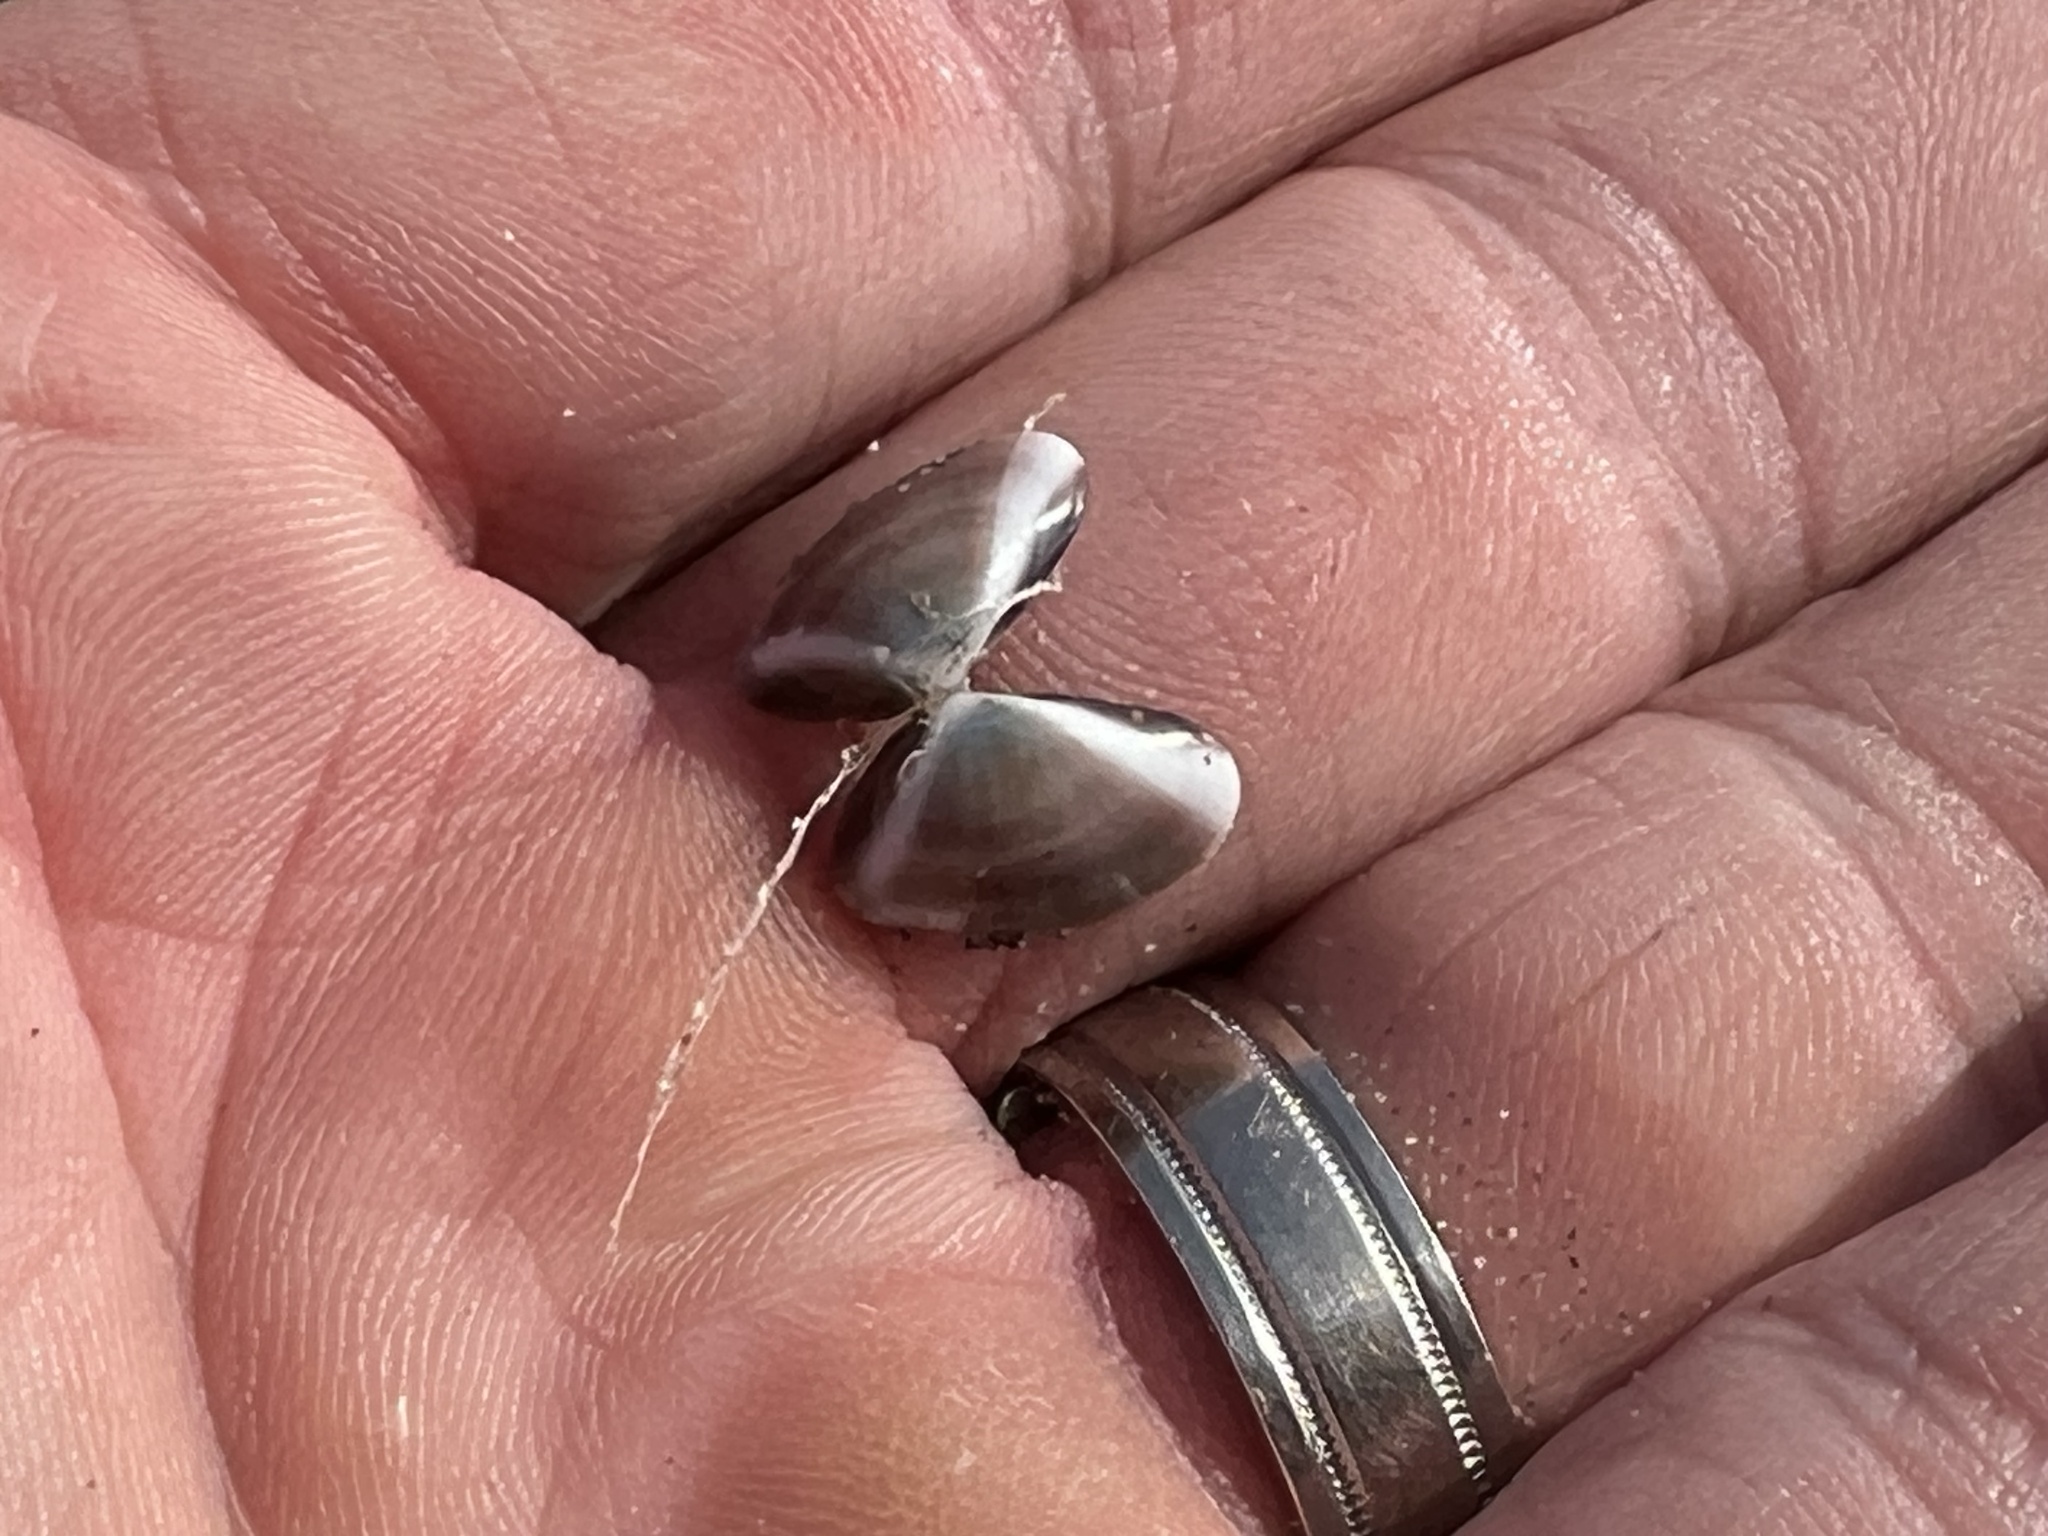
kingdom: Animalia
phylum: Mollusca
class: Bivalvia
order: Venerida
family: Veneridae
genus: Tivela
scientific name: Tivela stultorum
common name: Pismo clam
